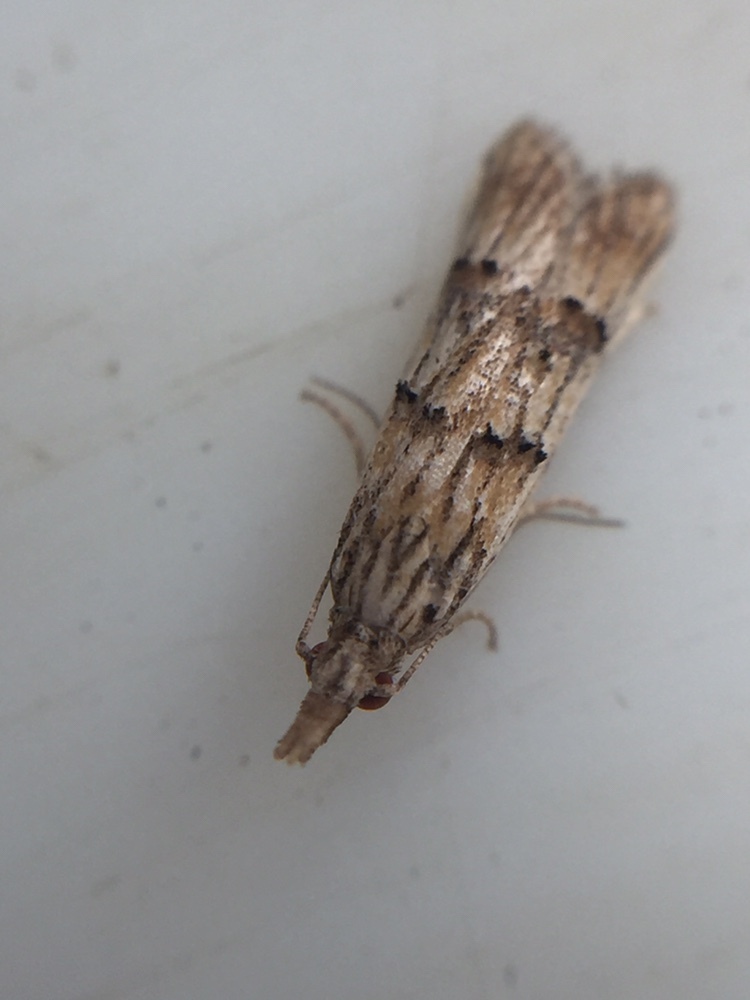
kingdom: Animalia
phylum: Arthropoda
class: Insecta
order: Lepidoptera
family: Carposinidae
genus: Carposina
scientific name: Carposina neurophorella
